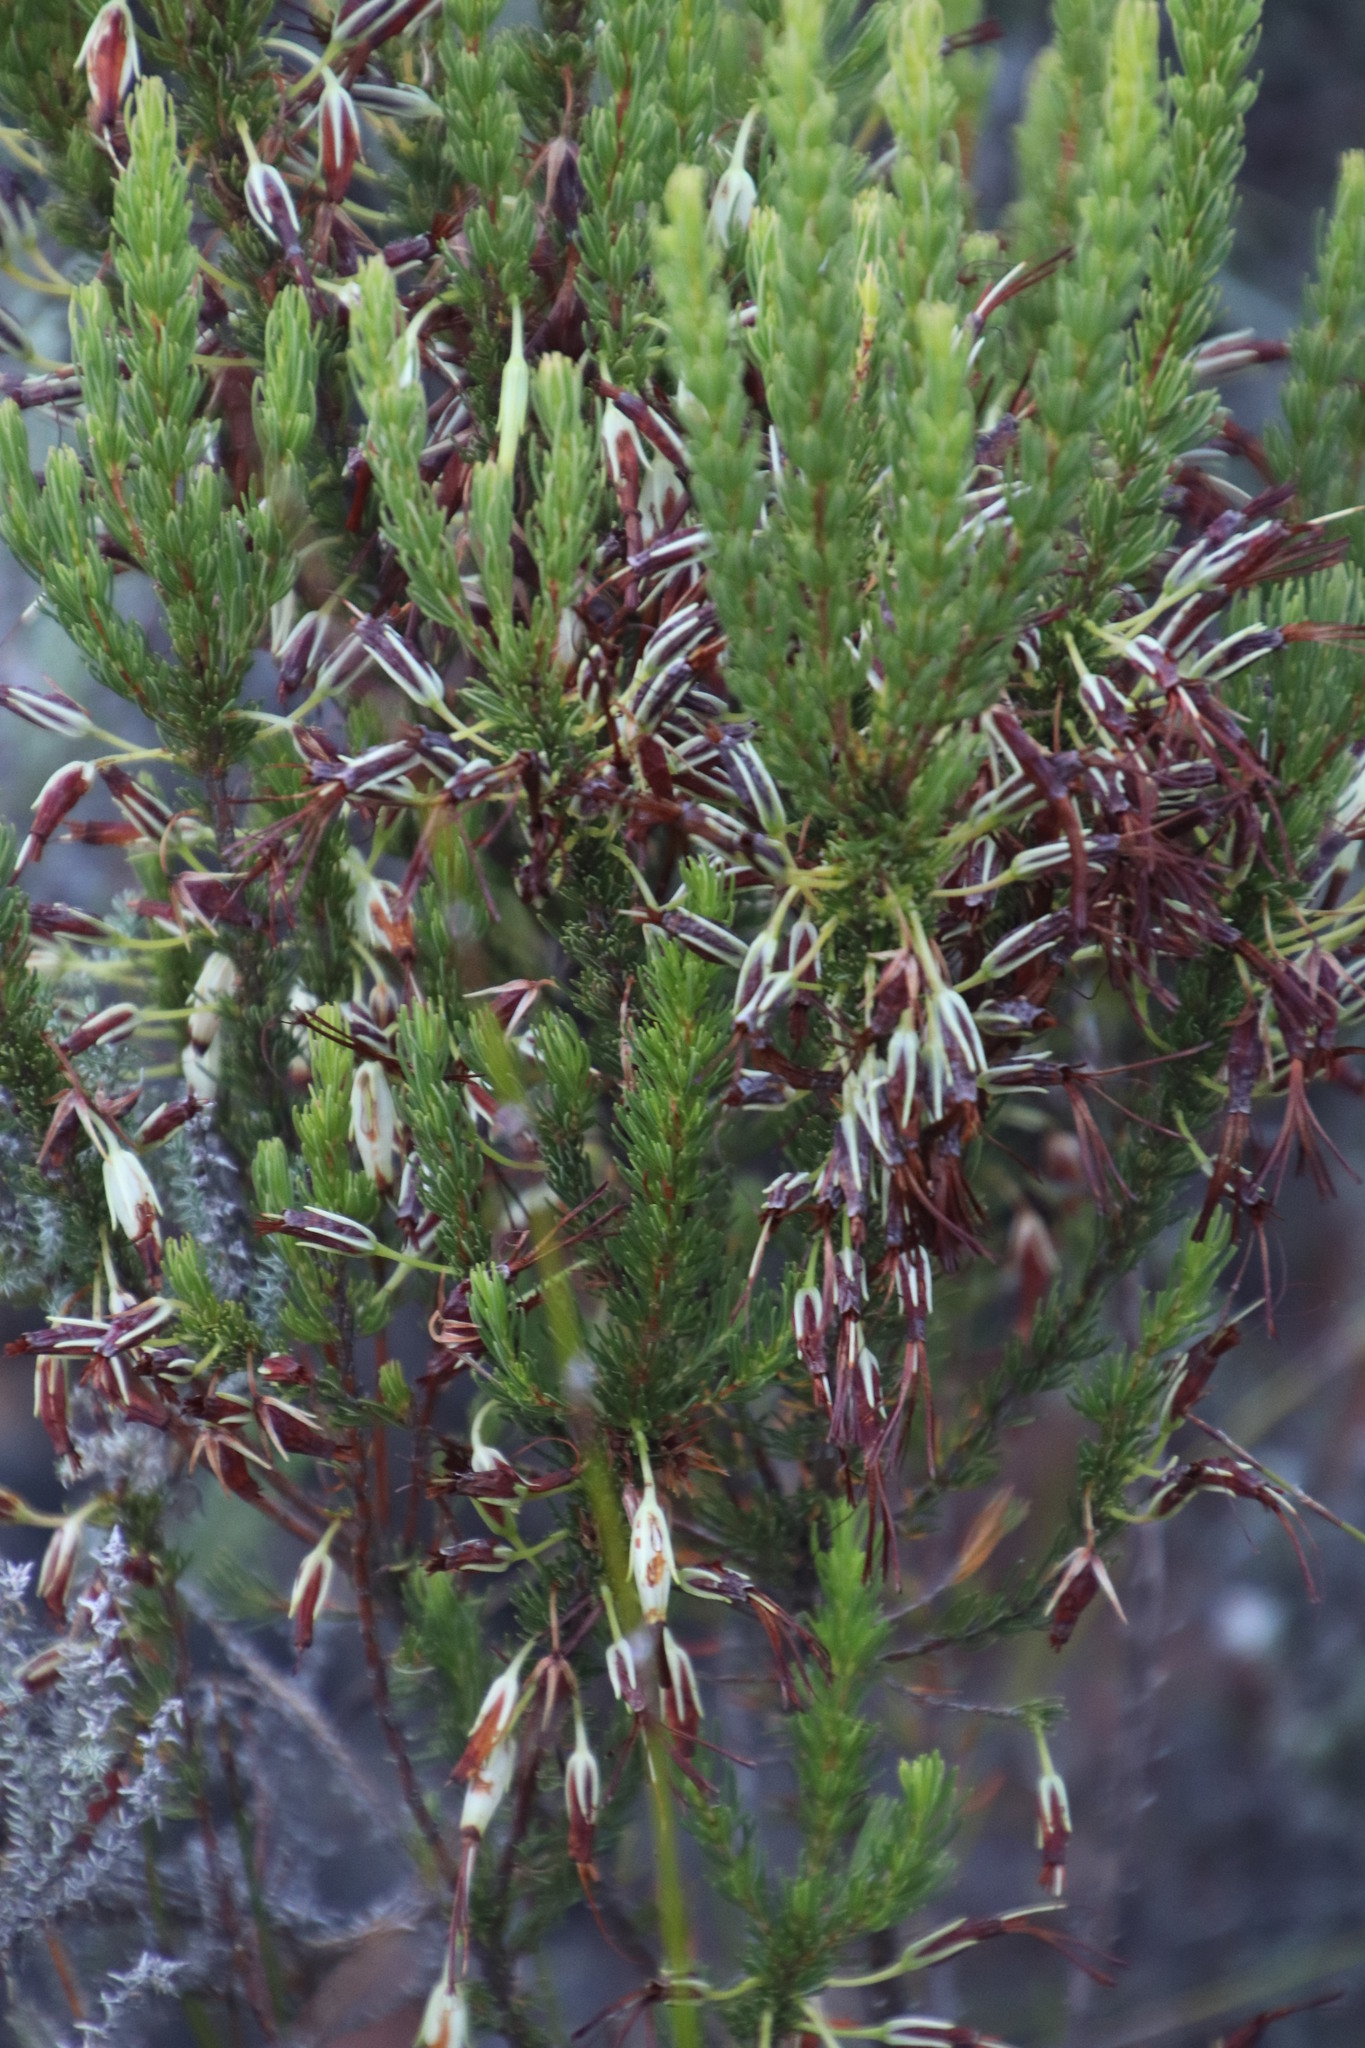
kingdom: Plantae
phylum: Tracheophyta
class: Magnoliopsida
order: Ericales
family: Ericaceae
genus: Erica
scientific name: Erica plukenetii
